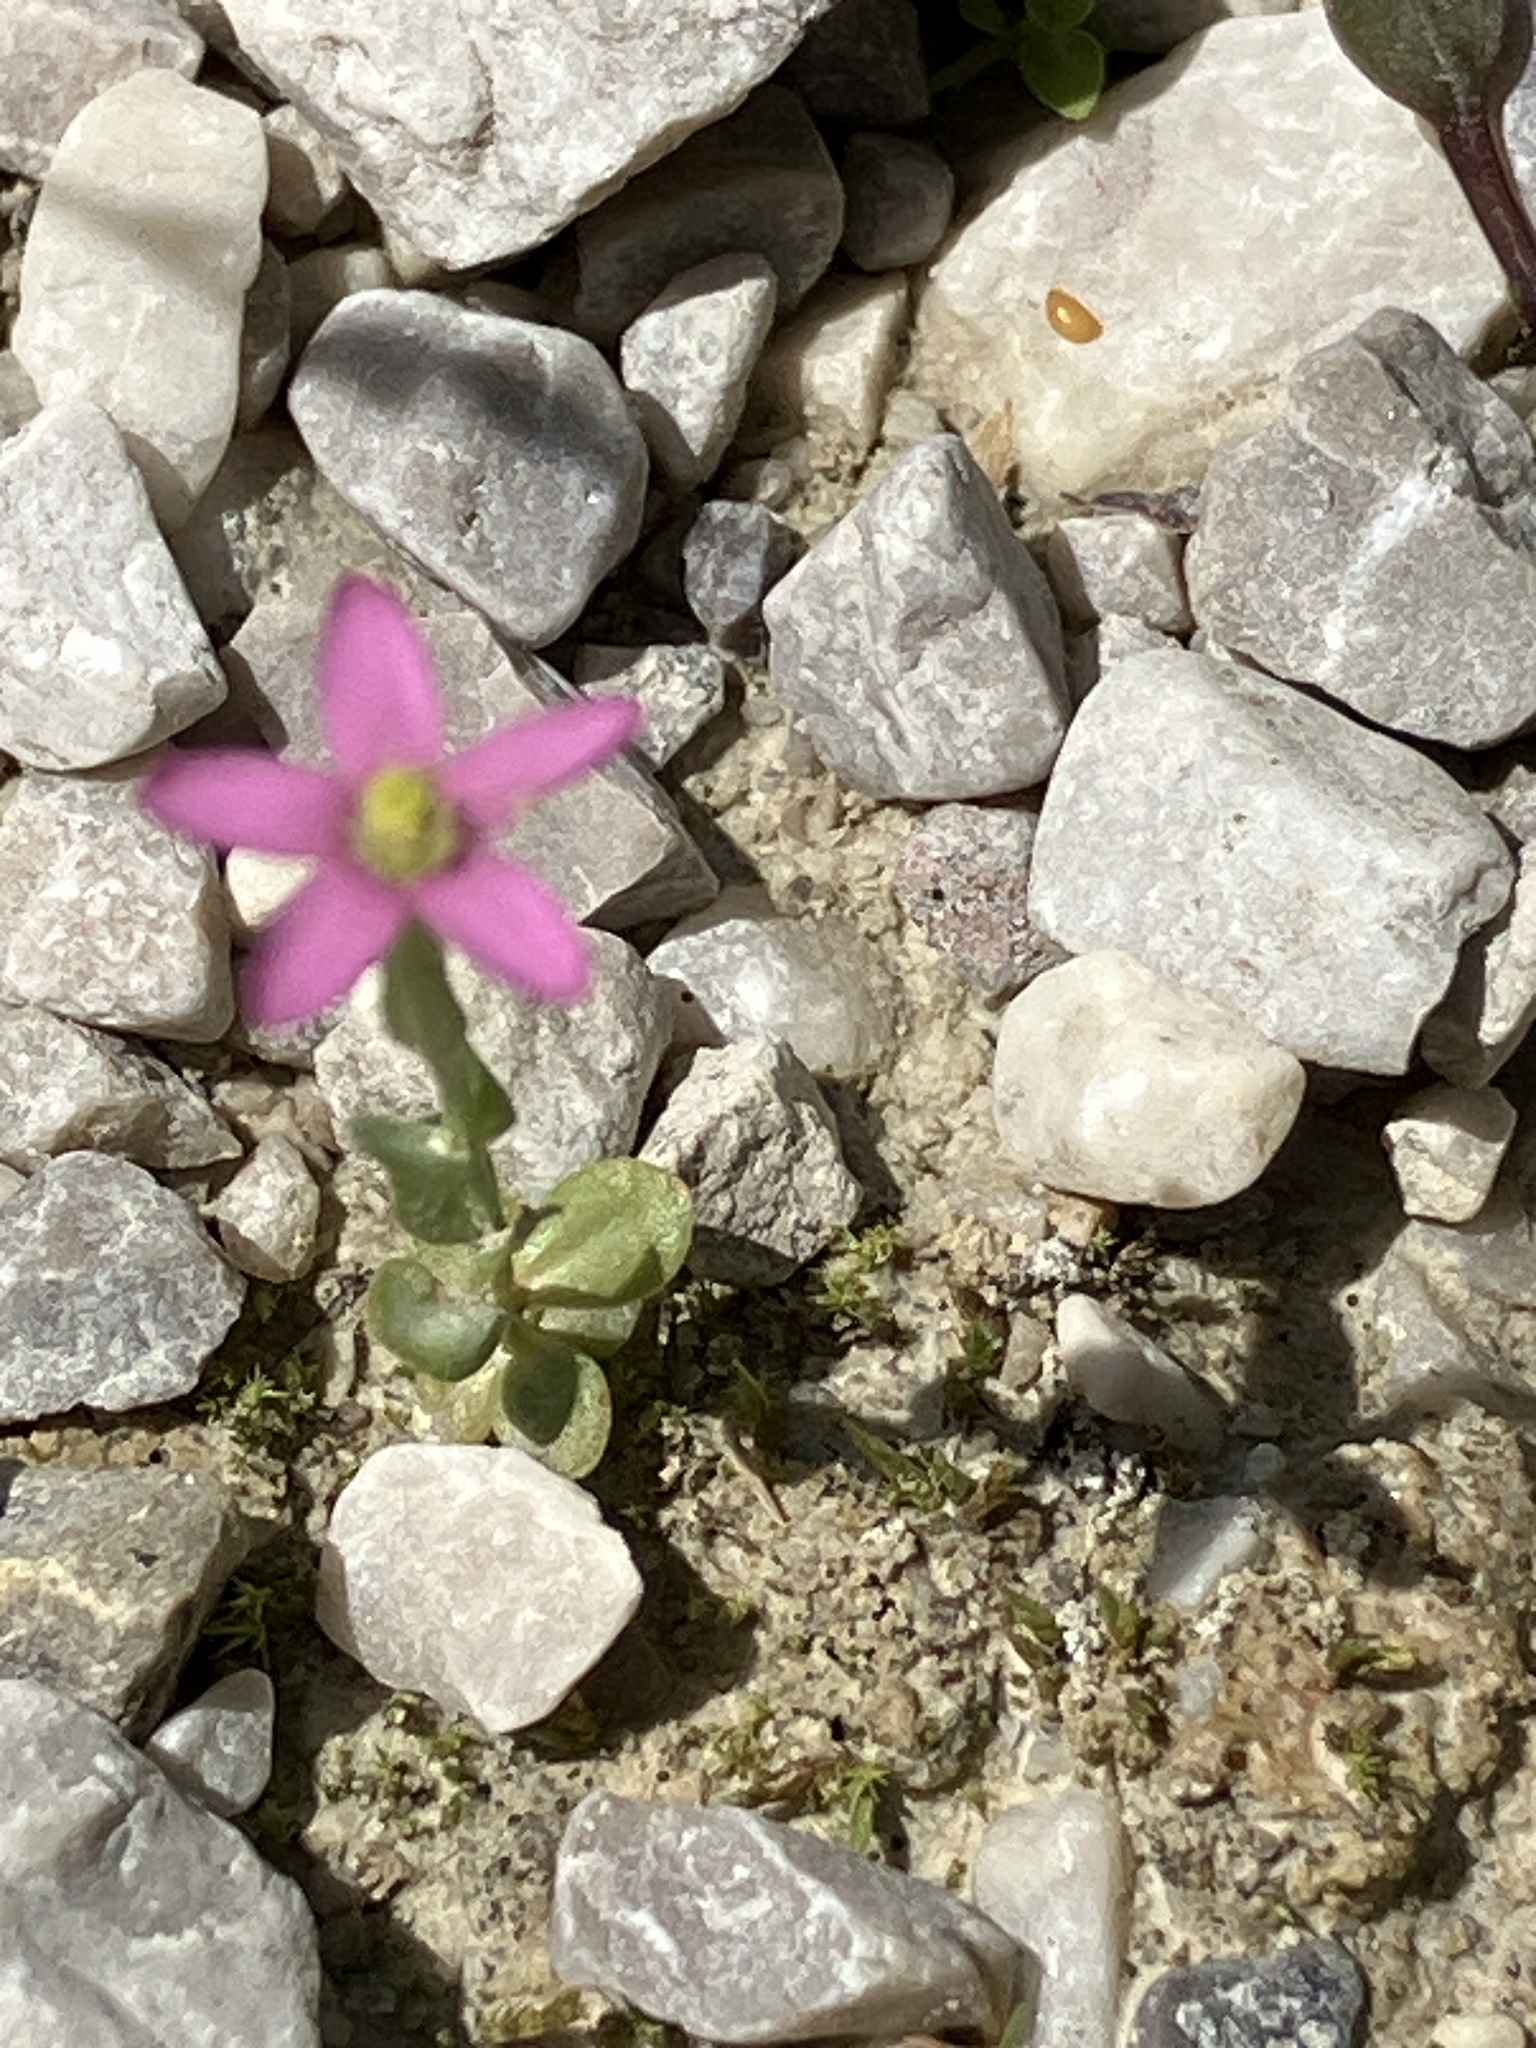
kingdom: Plantae
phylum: Tracheophyta
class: Magnoliopsida
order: Gentianales
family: Gentianaceae
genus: Centaurium
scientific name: Centaurium pulchellum
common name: Lesser centaury
